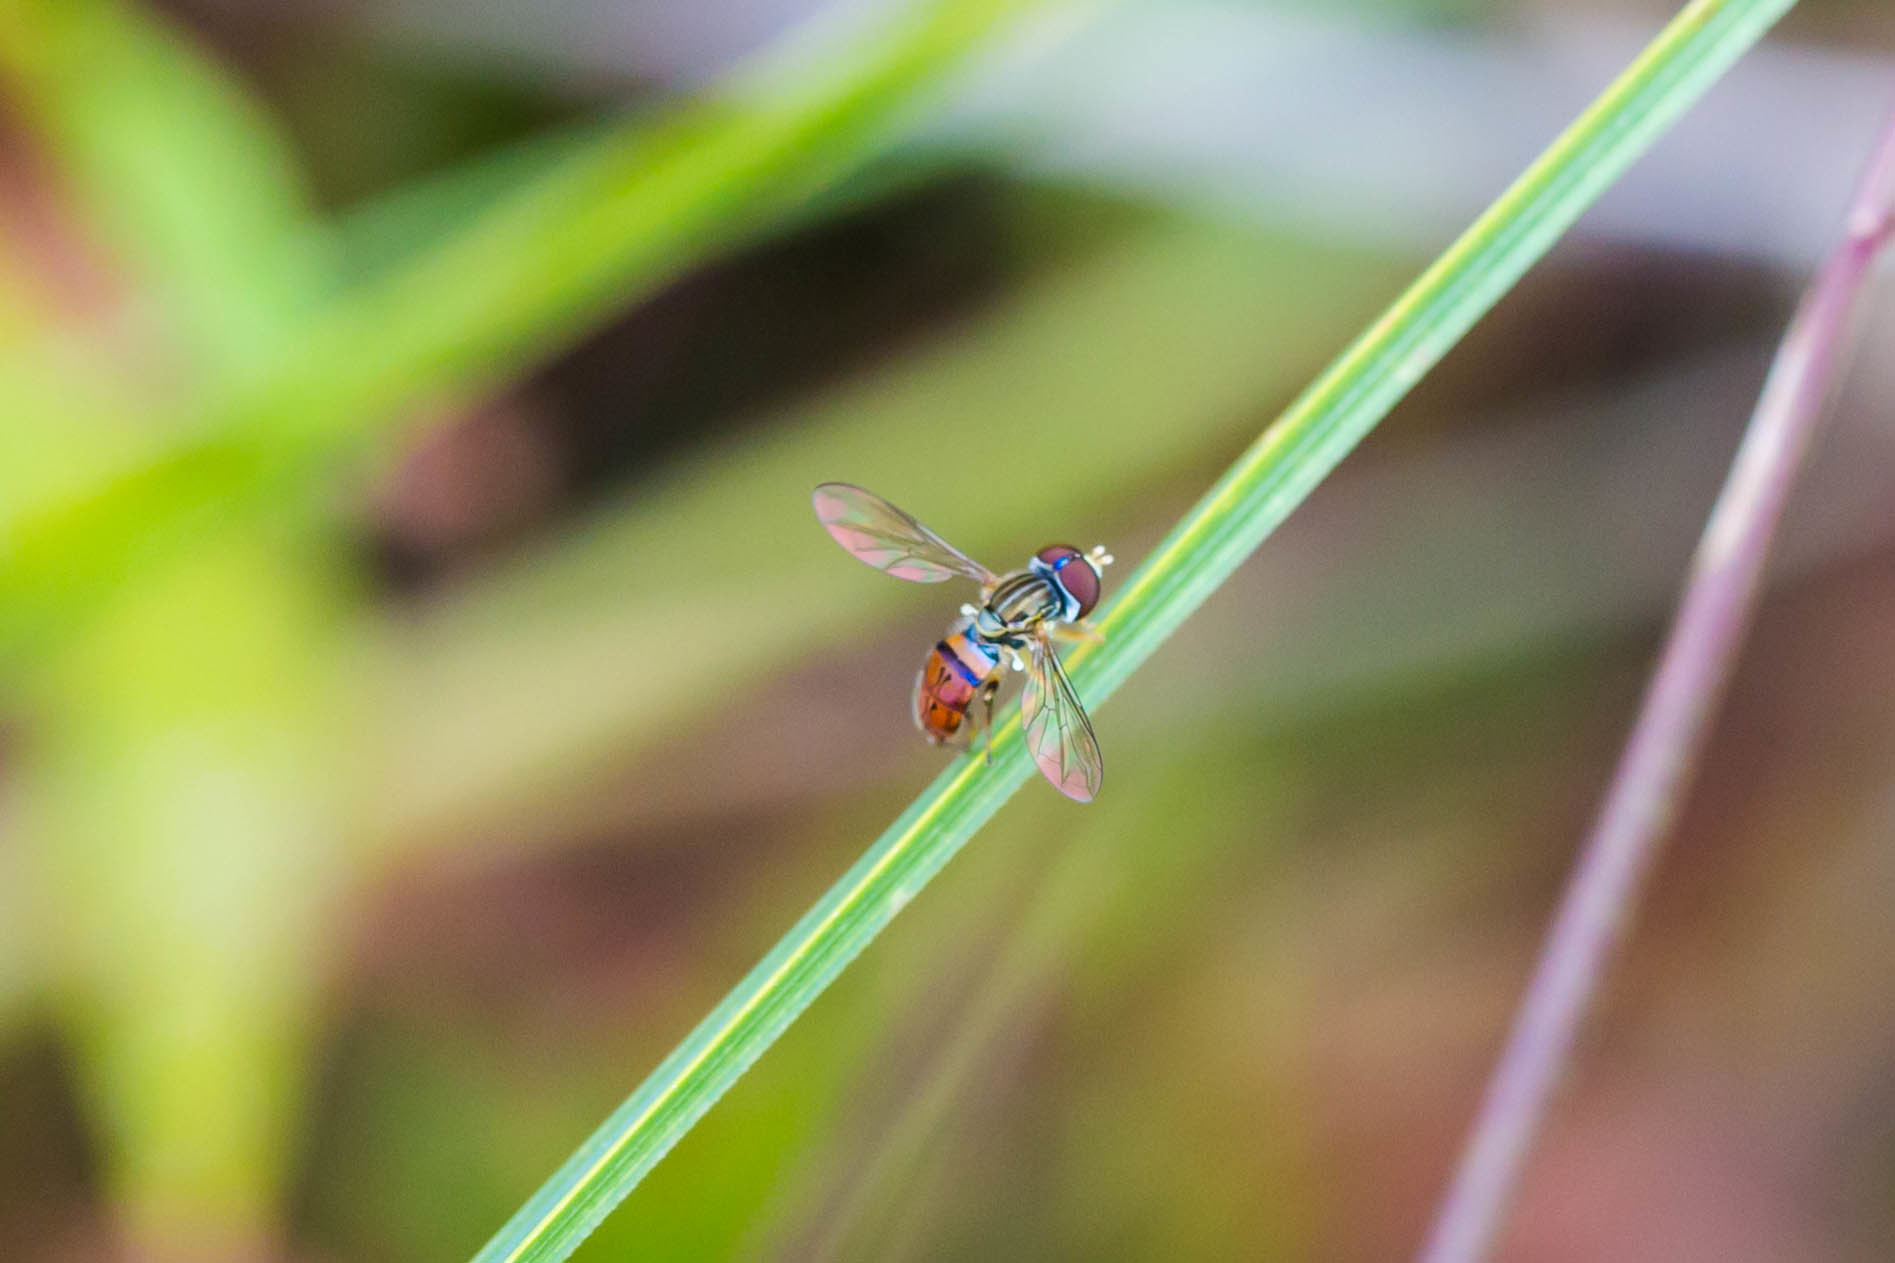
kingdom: Animalia
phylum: Arthropoda
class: Insecta
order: Diptera
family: Syrphidae
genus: Toxomerus
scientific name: Toxomerus boscii
